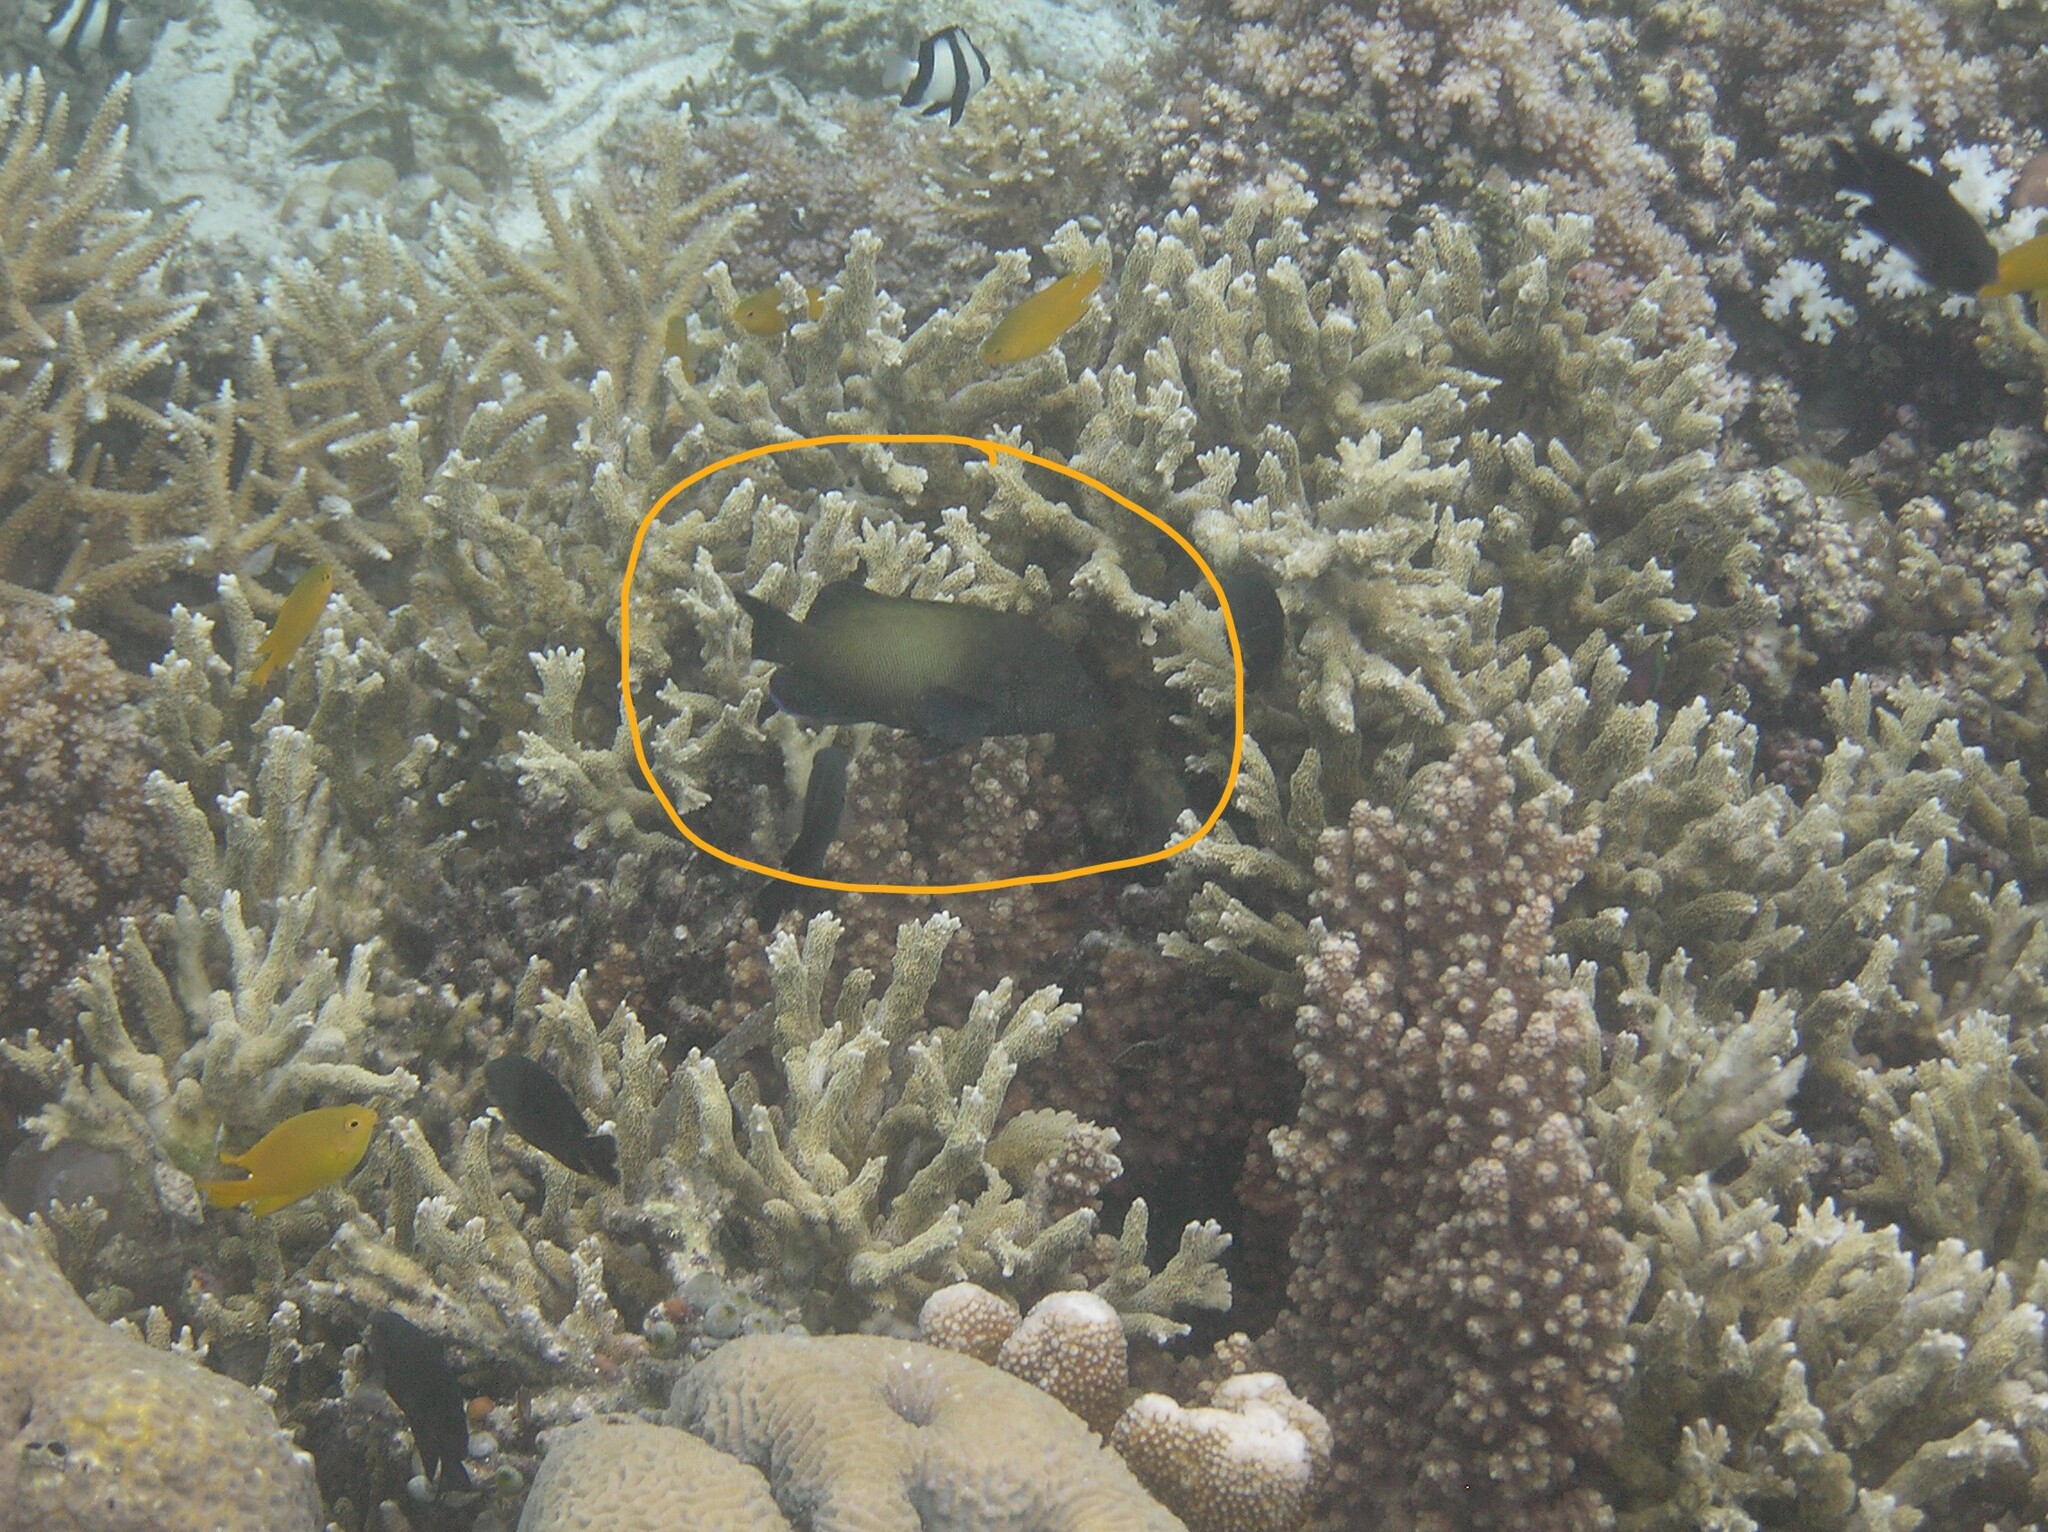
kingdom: Animalia
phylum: Chordata
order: Perciformes
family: Serranidae
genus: Cephalopholis
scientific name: Cephalopholis microprion
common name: Freckled hind
